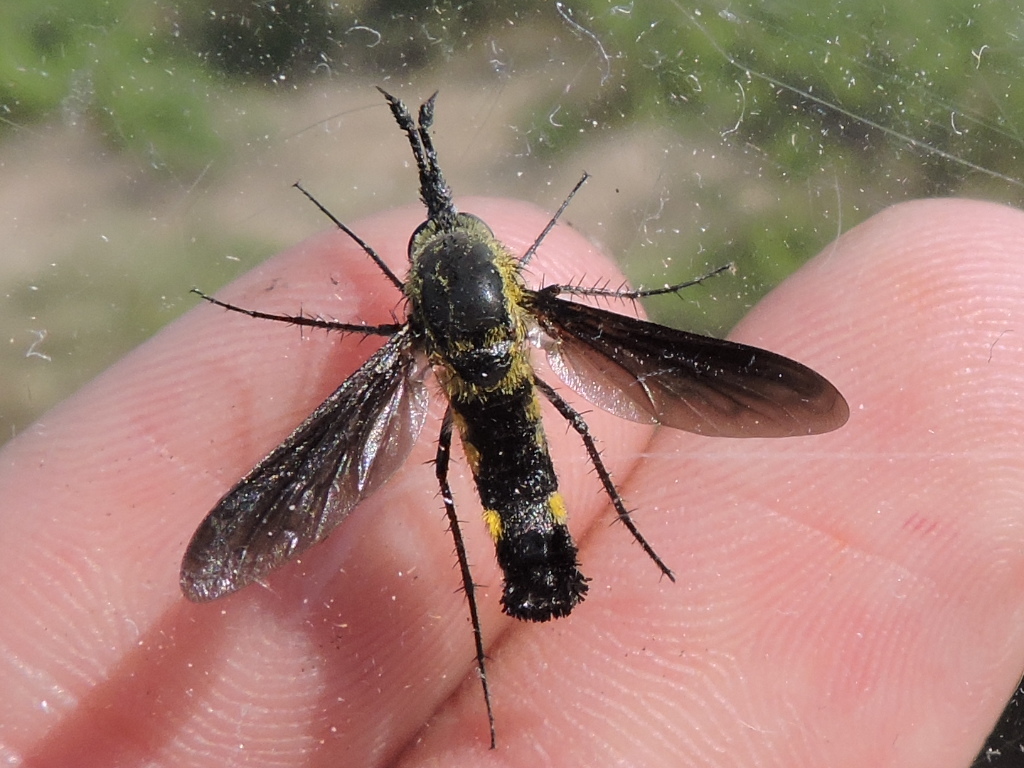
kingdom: Animalia
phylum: Arthropoda
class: Insecta
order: Diptera
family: Bombyliidae
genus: Lepidophora
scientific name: Lepidophora lepidocera
